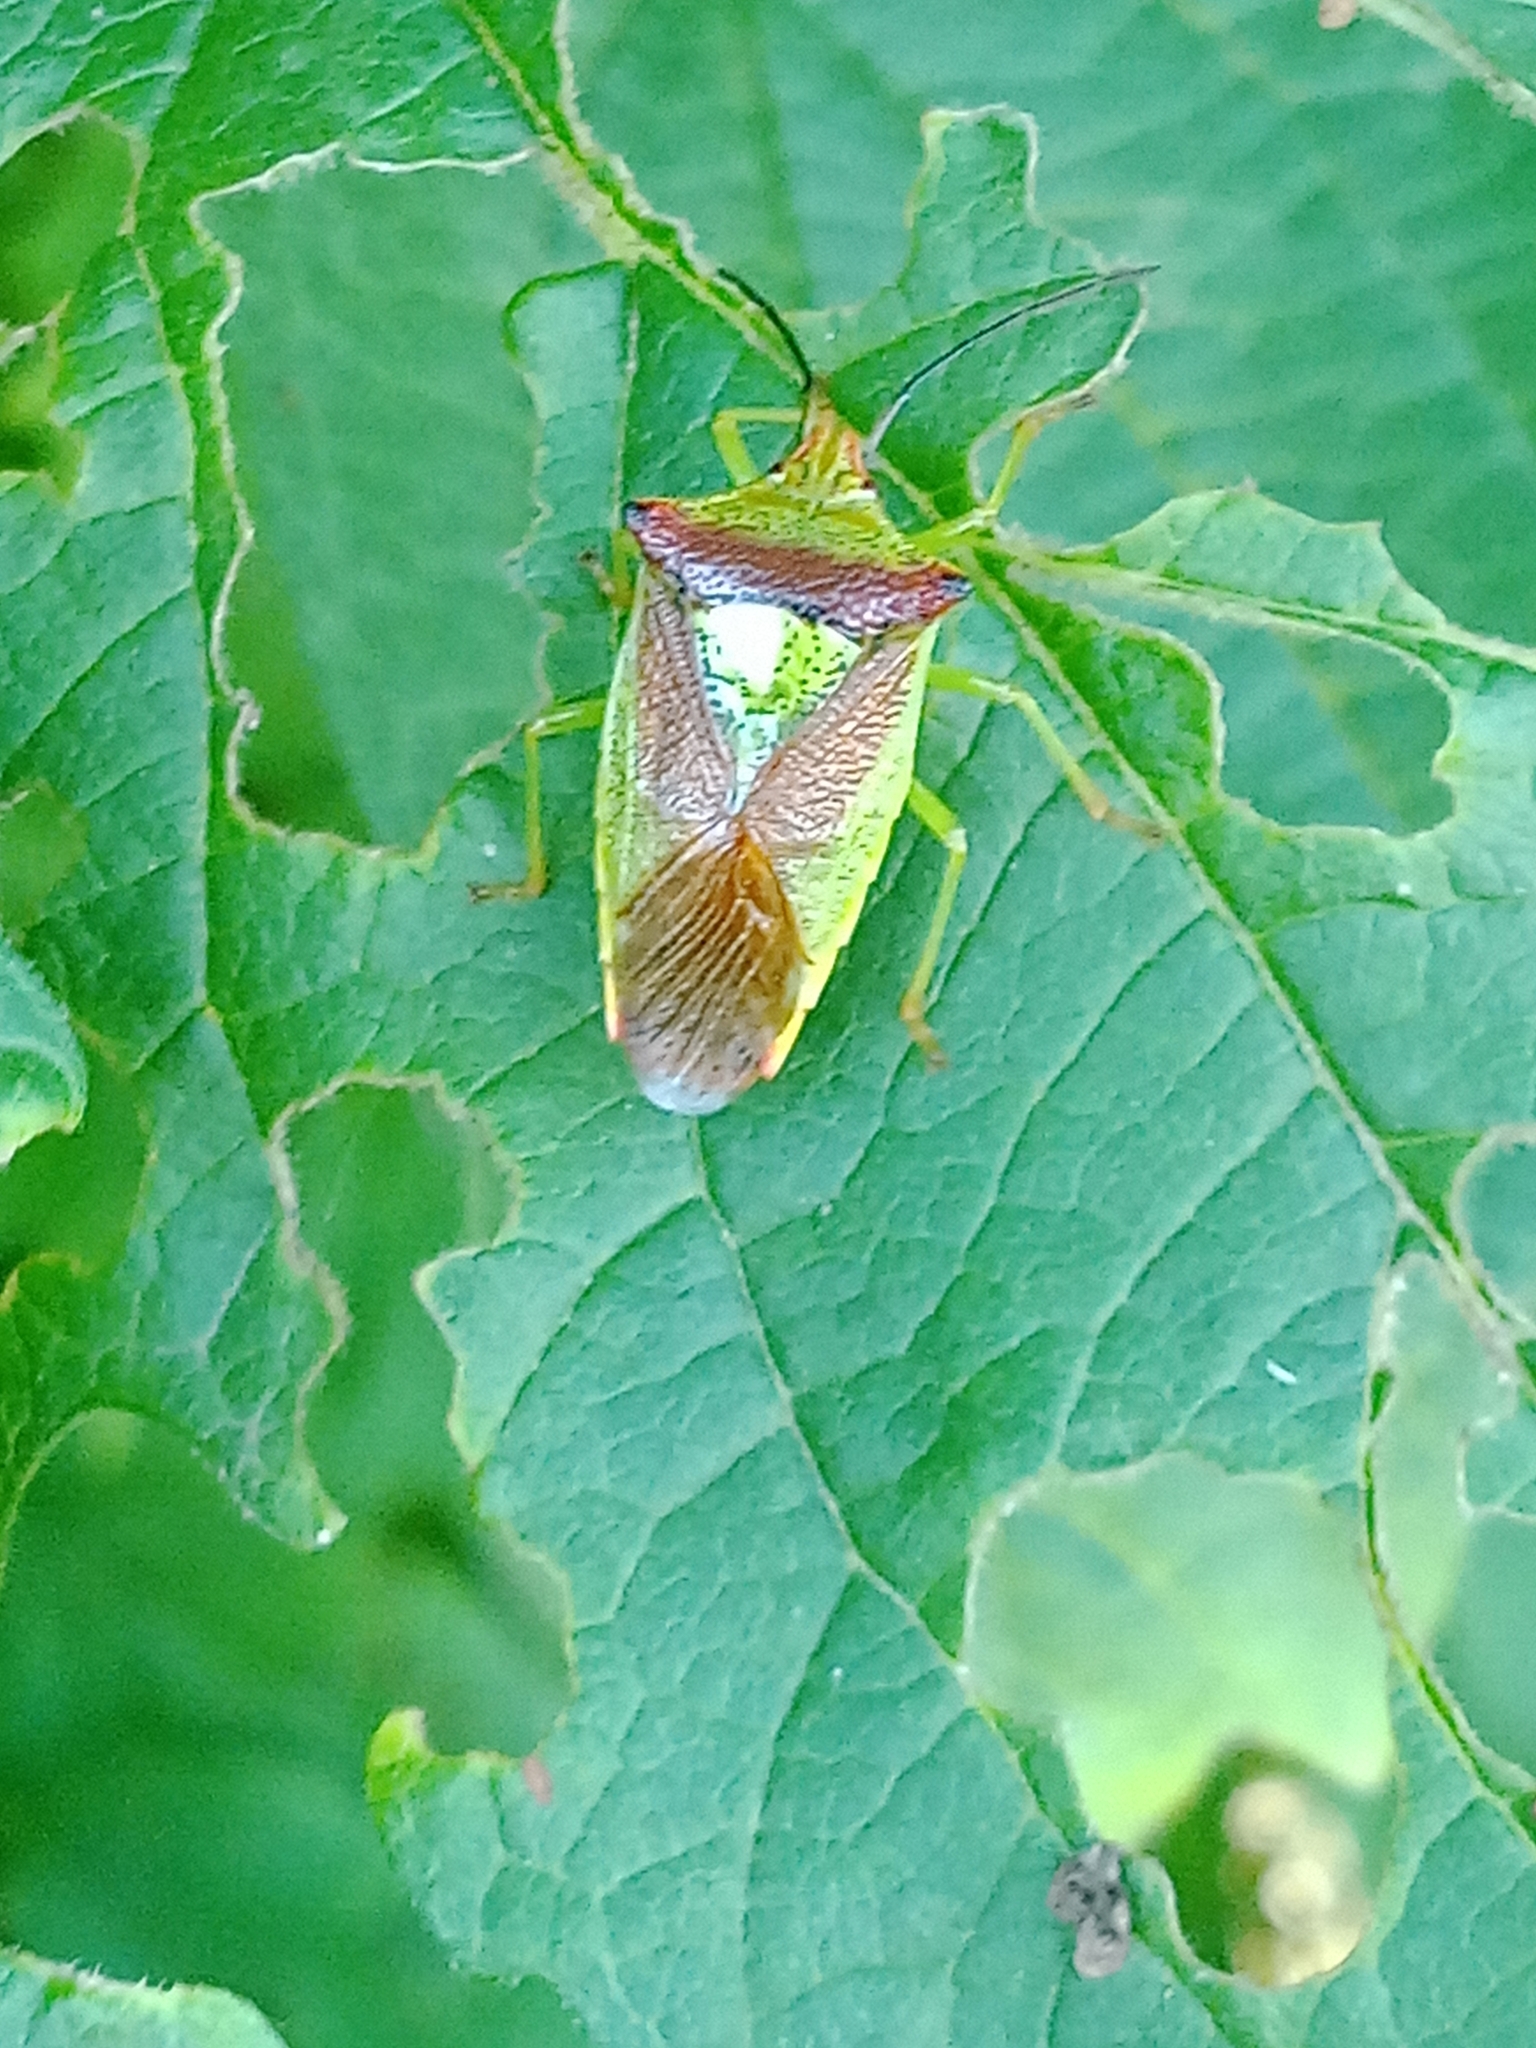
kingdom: Animalia
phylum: Arthropoda
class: Insecta
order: Hemiptera
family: Acanthosomatidae
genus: Acanthosoma
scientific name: Acanthosoma haemorrhoidale
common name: Hawthorn shieldbug
